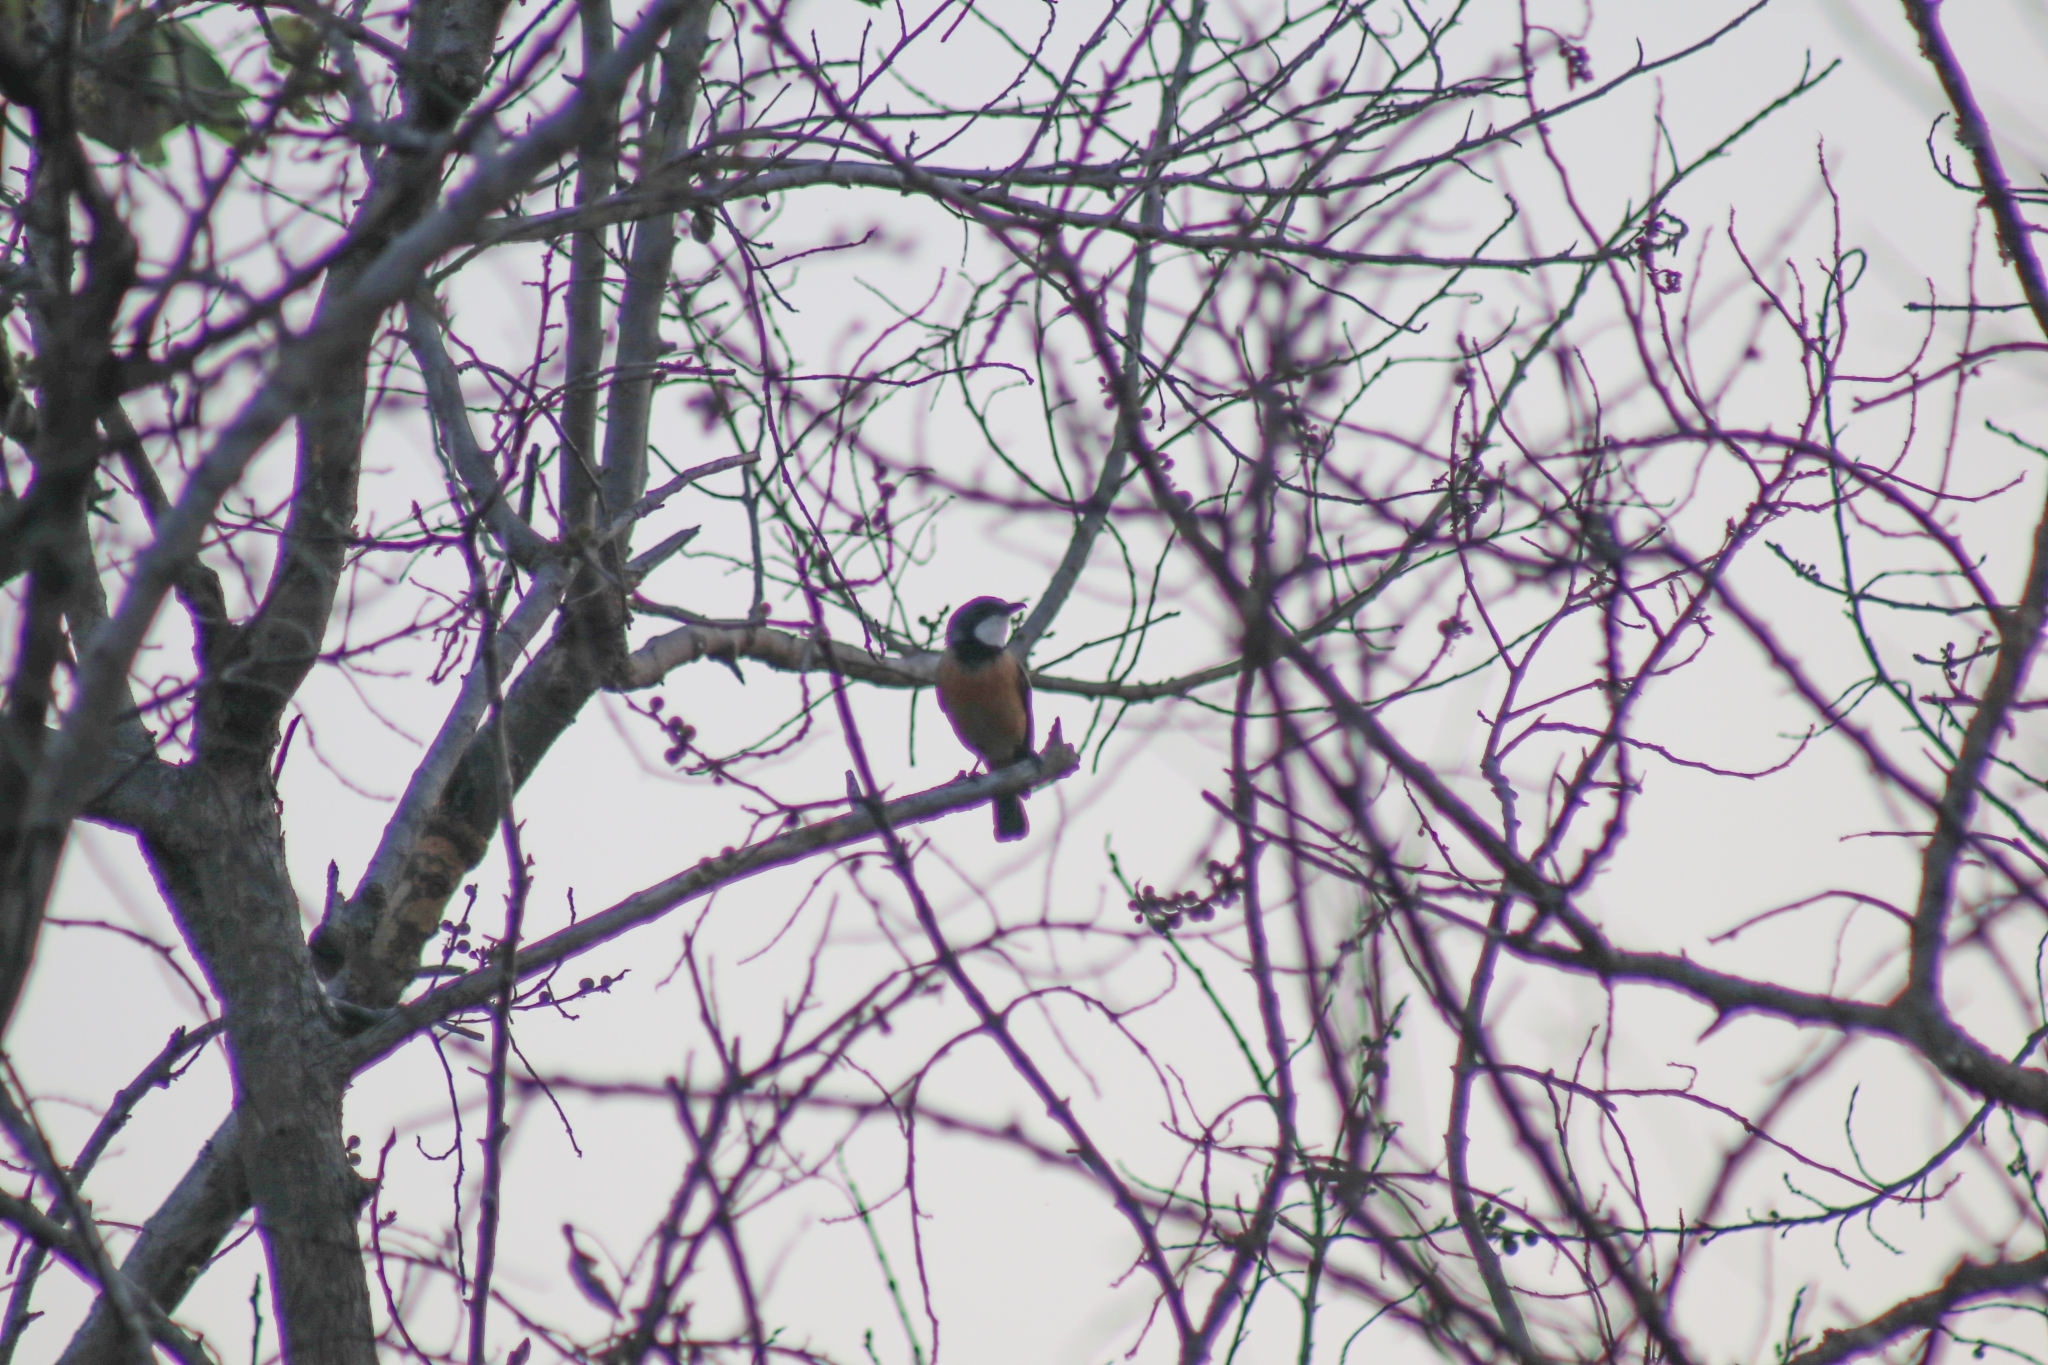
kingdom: Animalia
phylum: Chordata
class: Aves
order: Passeriformes
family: Pachycephalidae
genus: Pachycephala
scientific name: Pachycephala rufiventris
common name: Rufous whistler
